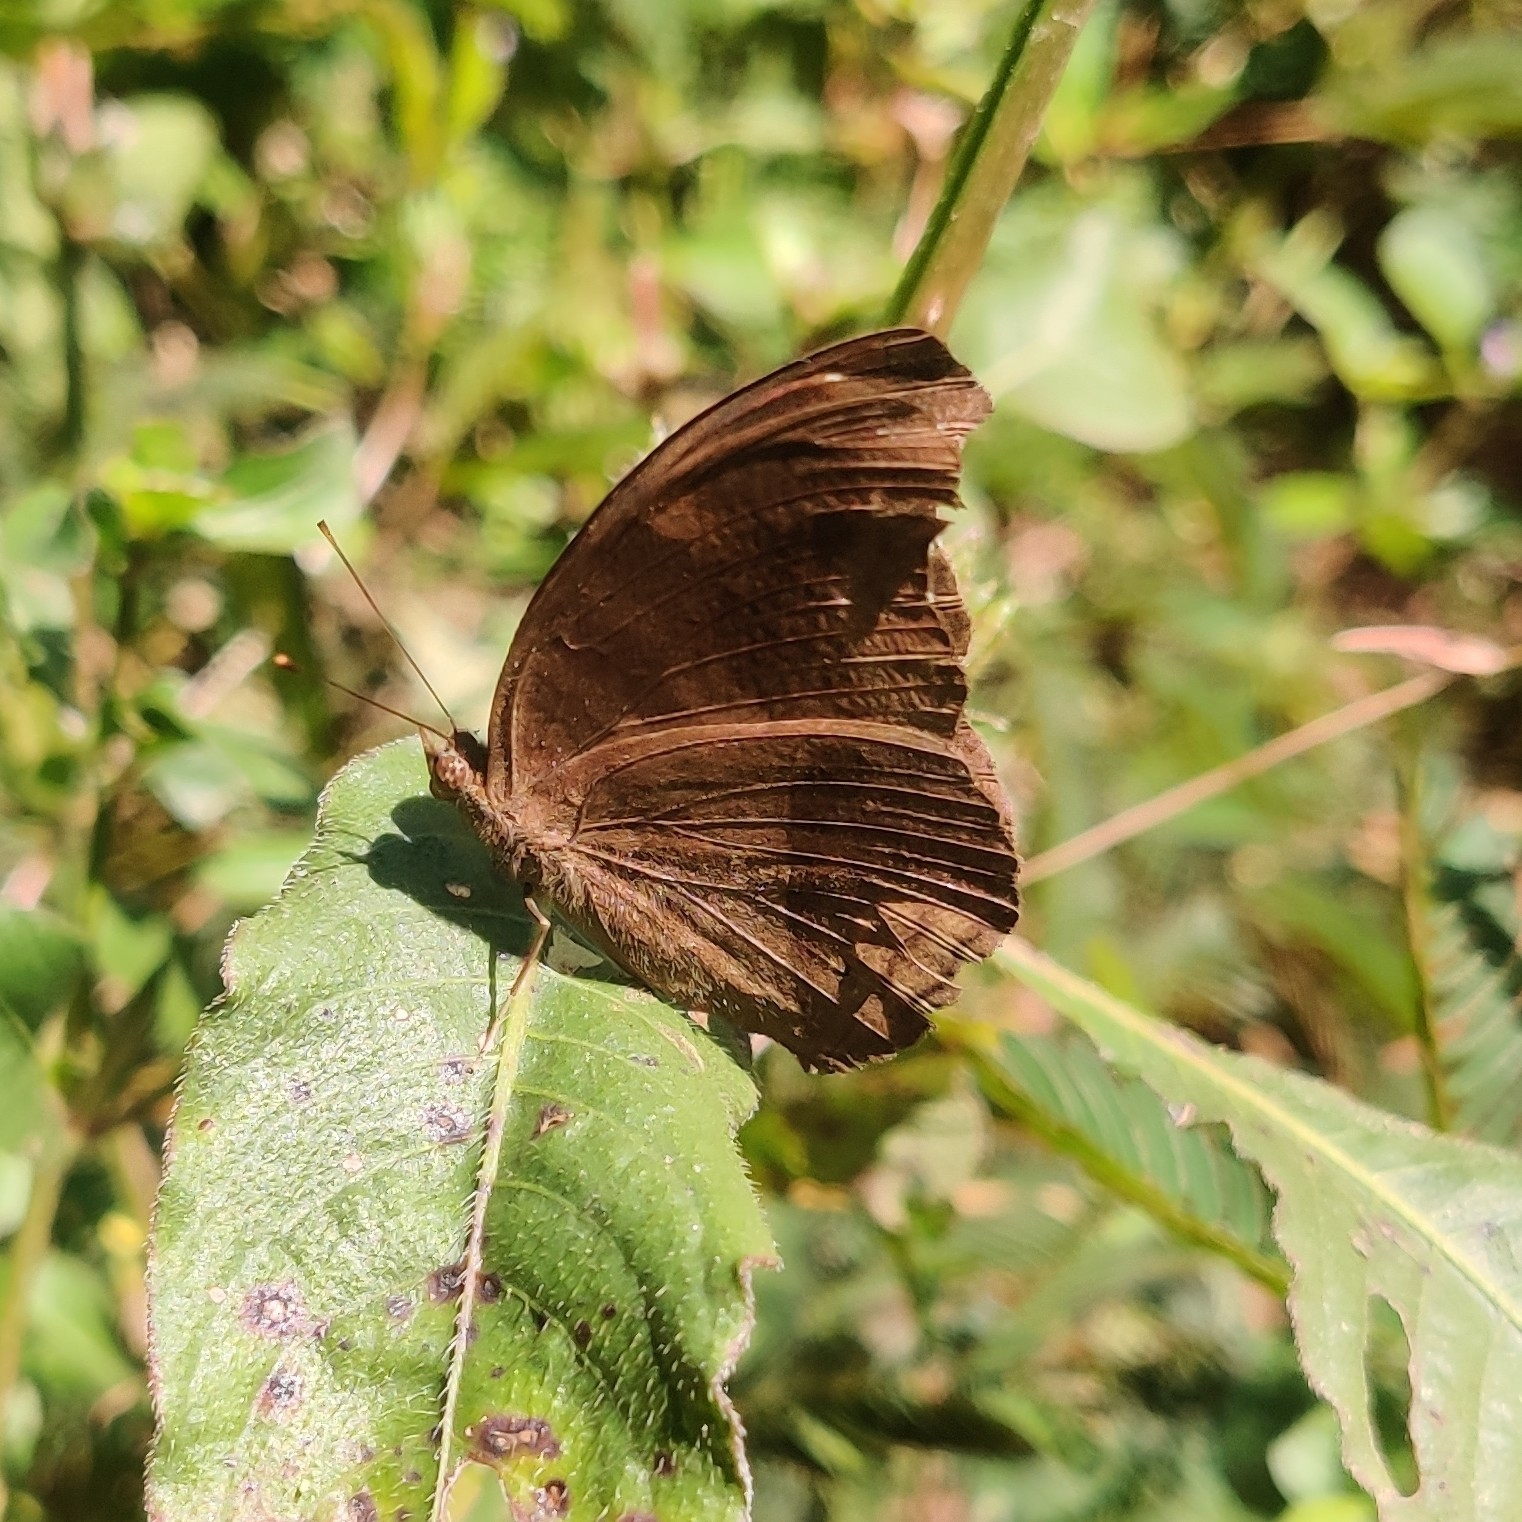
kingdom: Animalia
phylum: Arthropoda
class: Insecta
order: Lepidoptera
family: Nymphalidae
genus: Junonia
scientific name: Junonia iphita
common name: Chocolate pansy
